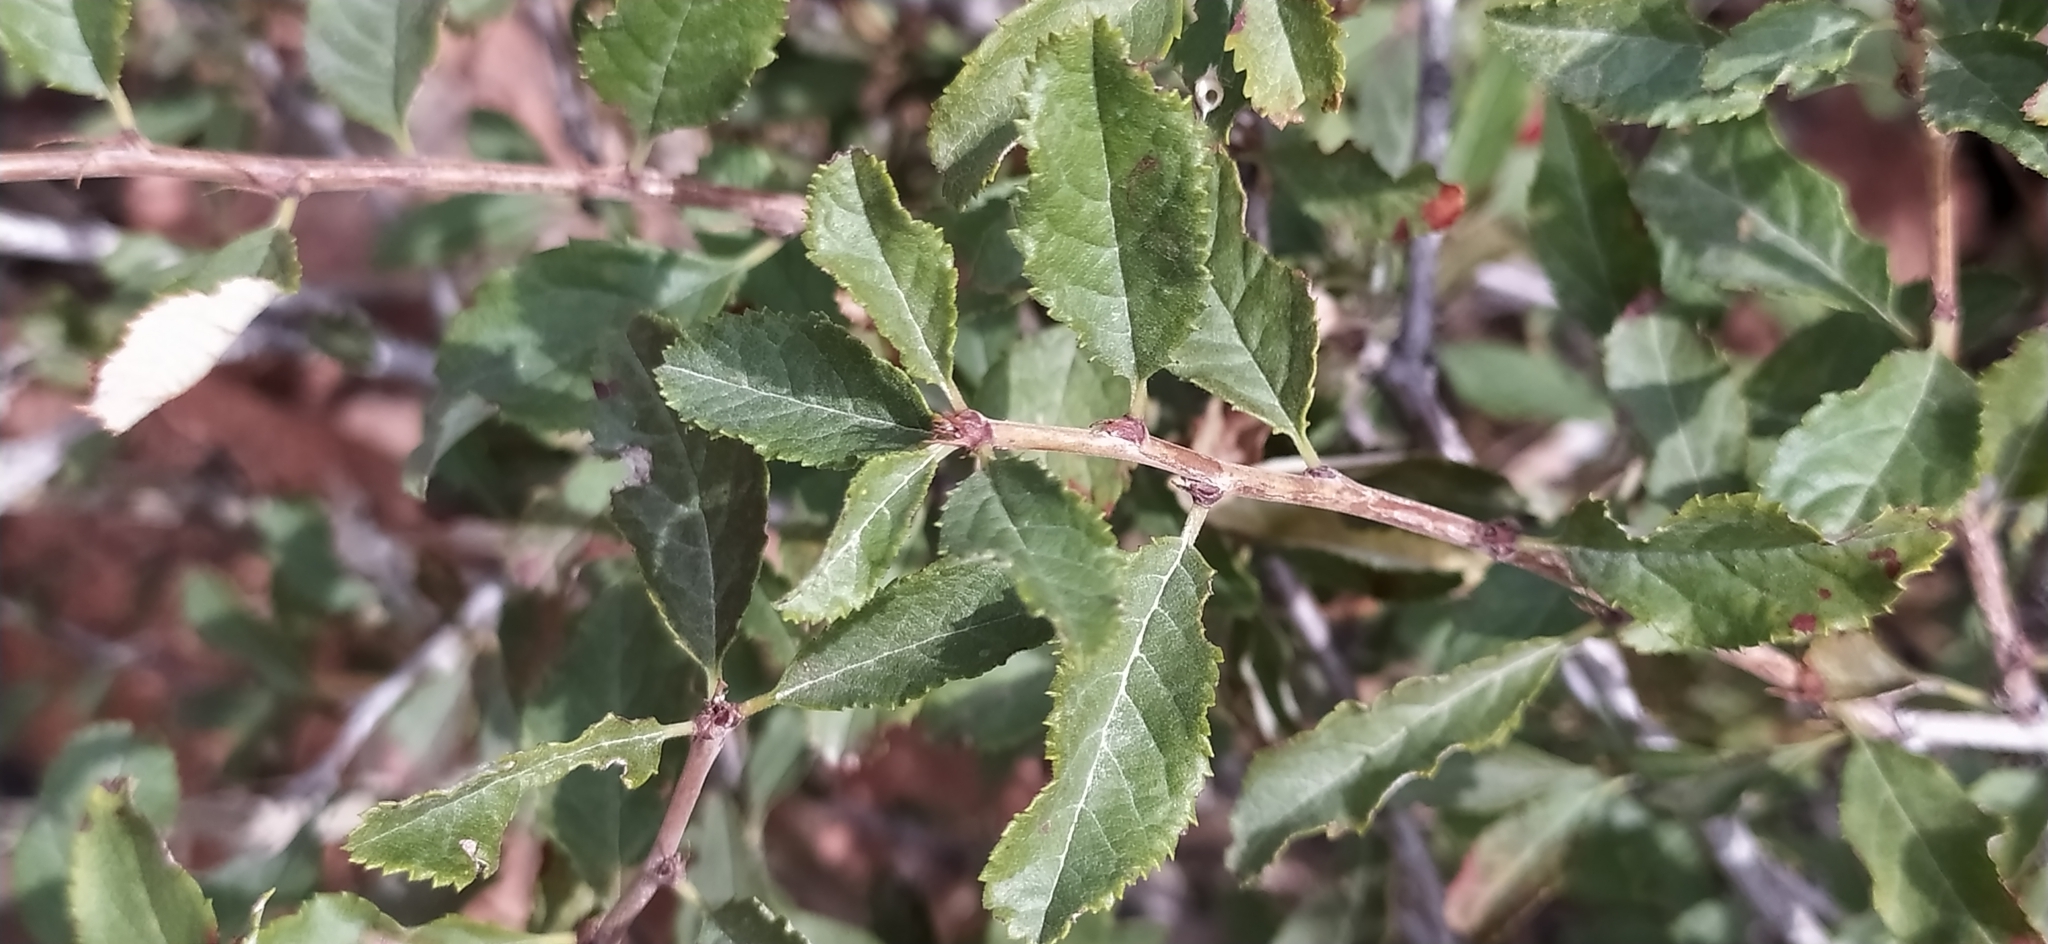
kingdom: Plantae
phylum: Tracheophyta
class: Magnoliopsida
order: Rosales
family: Rosaceae
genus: Prunus
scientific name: Prunus bifrons
